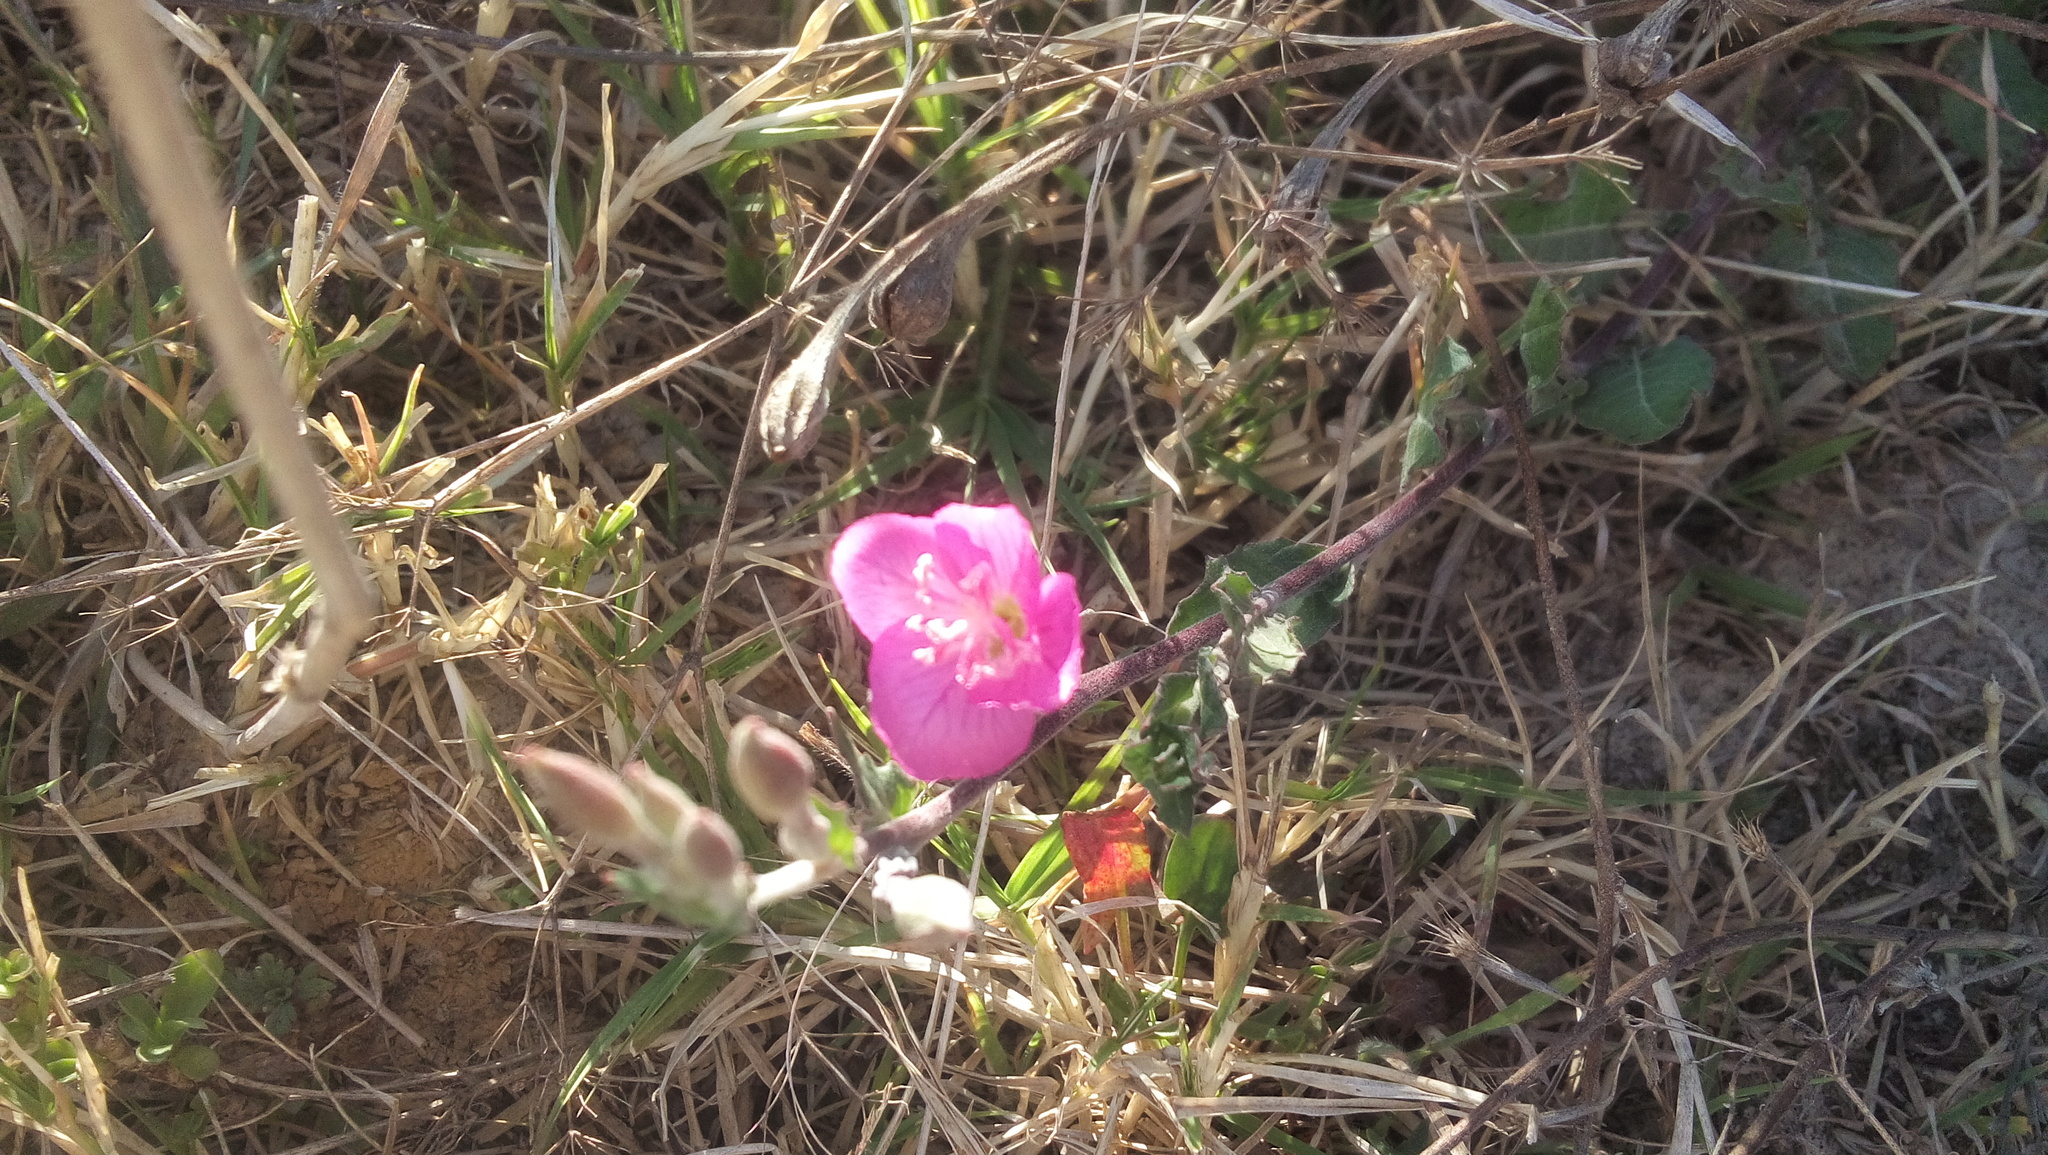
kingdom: Plantae
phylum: Tracheophyta
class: Magnoliopsida
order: Myrtales
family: Onagraceae
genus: Oenothera
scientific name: Oenothera rosea
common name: Rosy evening-primrose
